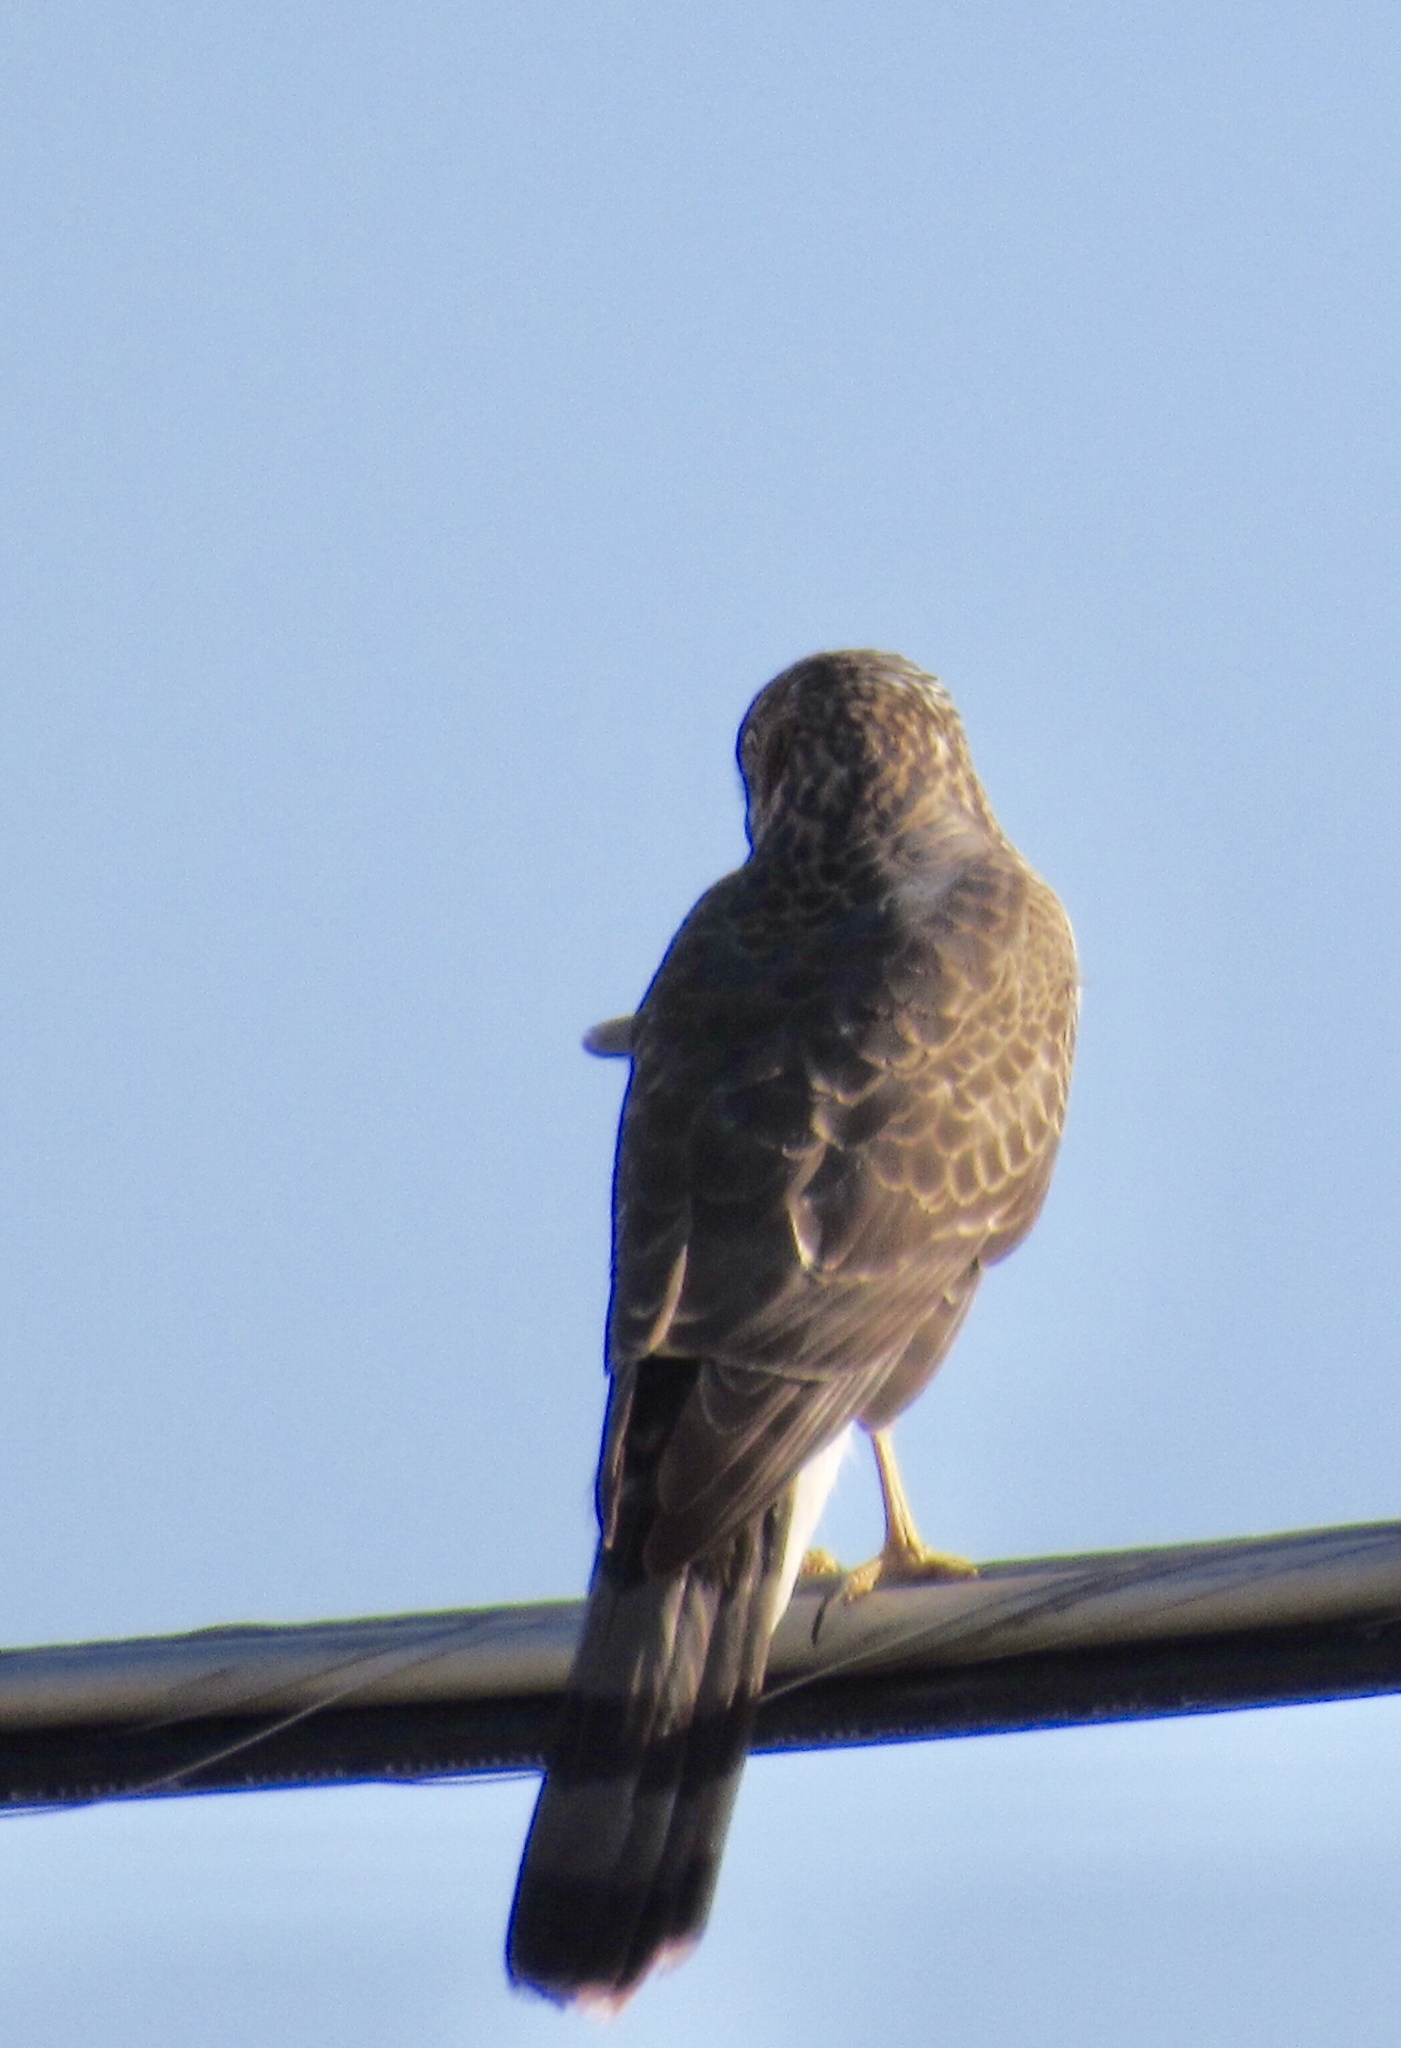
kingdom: Animalia
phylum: Chordata
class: Aves
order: Accipitriformes
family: Accipitridae
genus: Accipiter
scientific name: Accipiter cooperii
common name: Cooper's hawk
